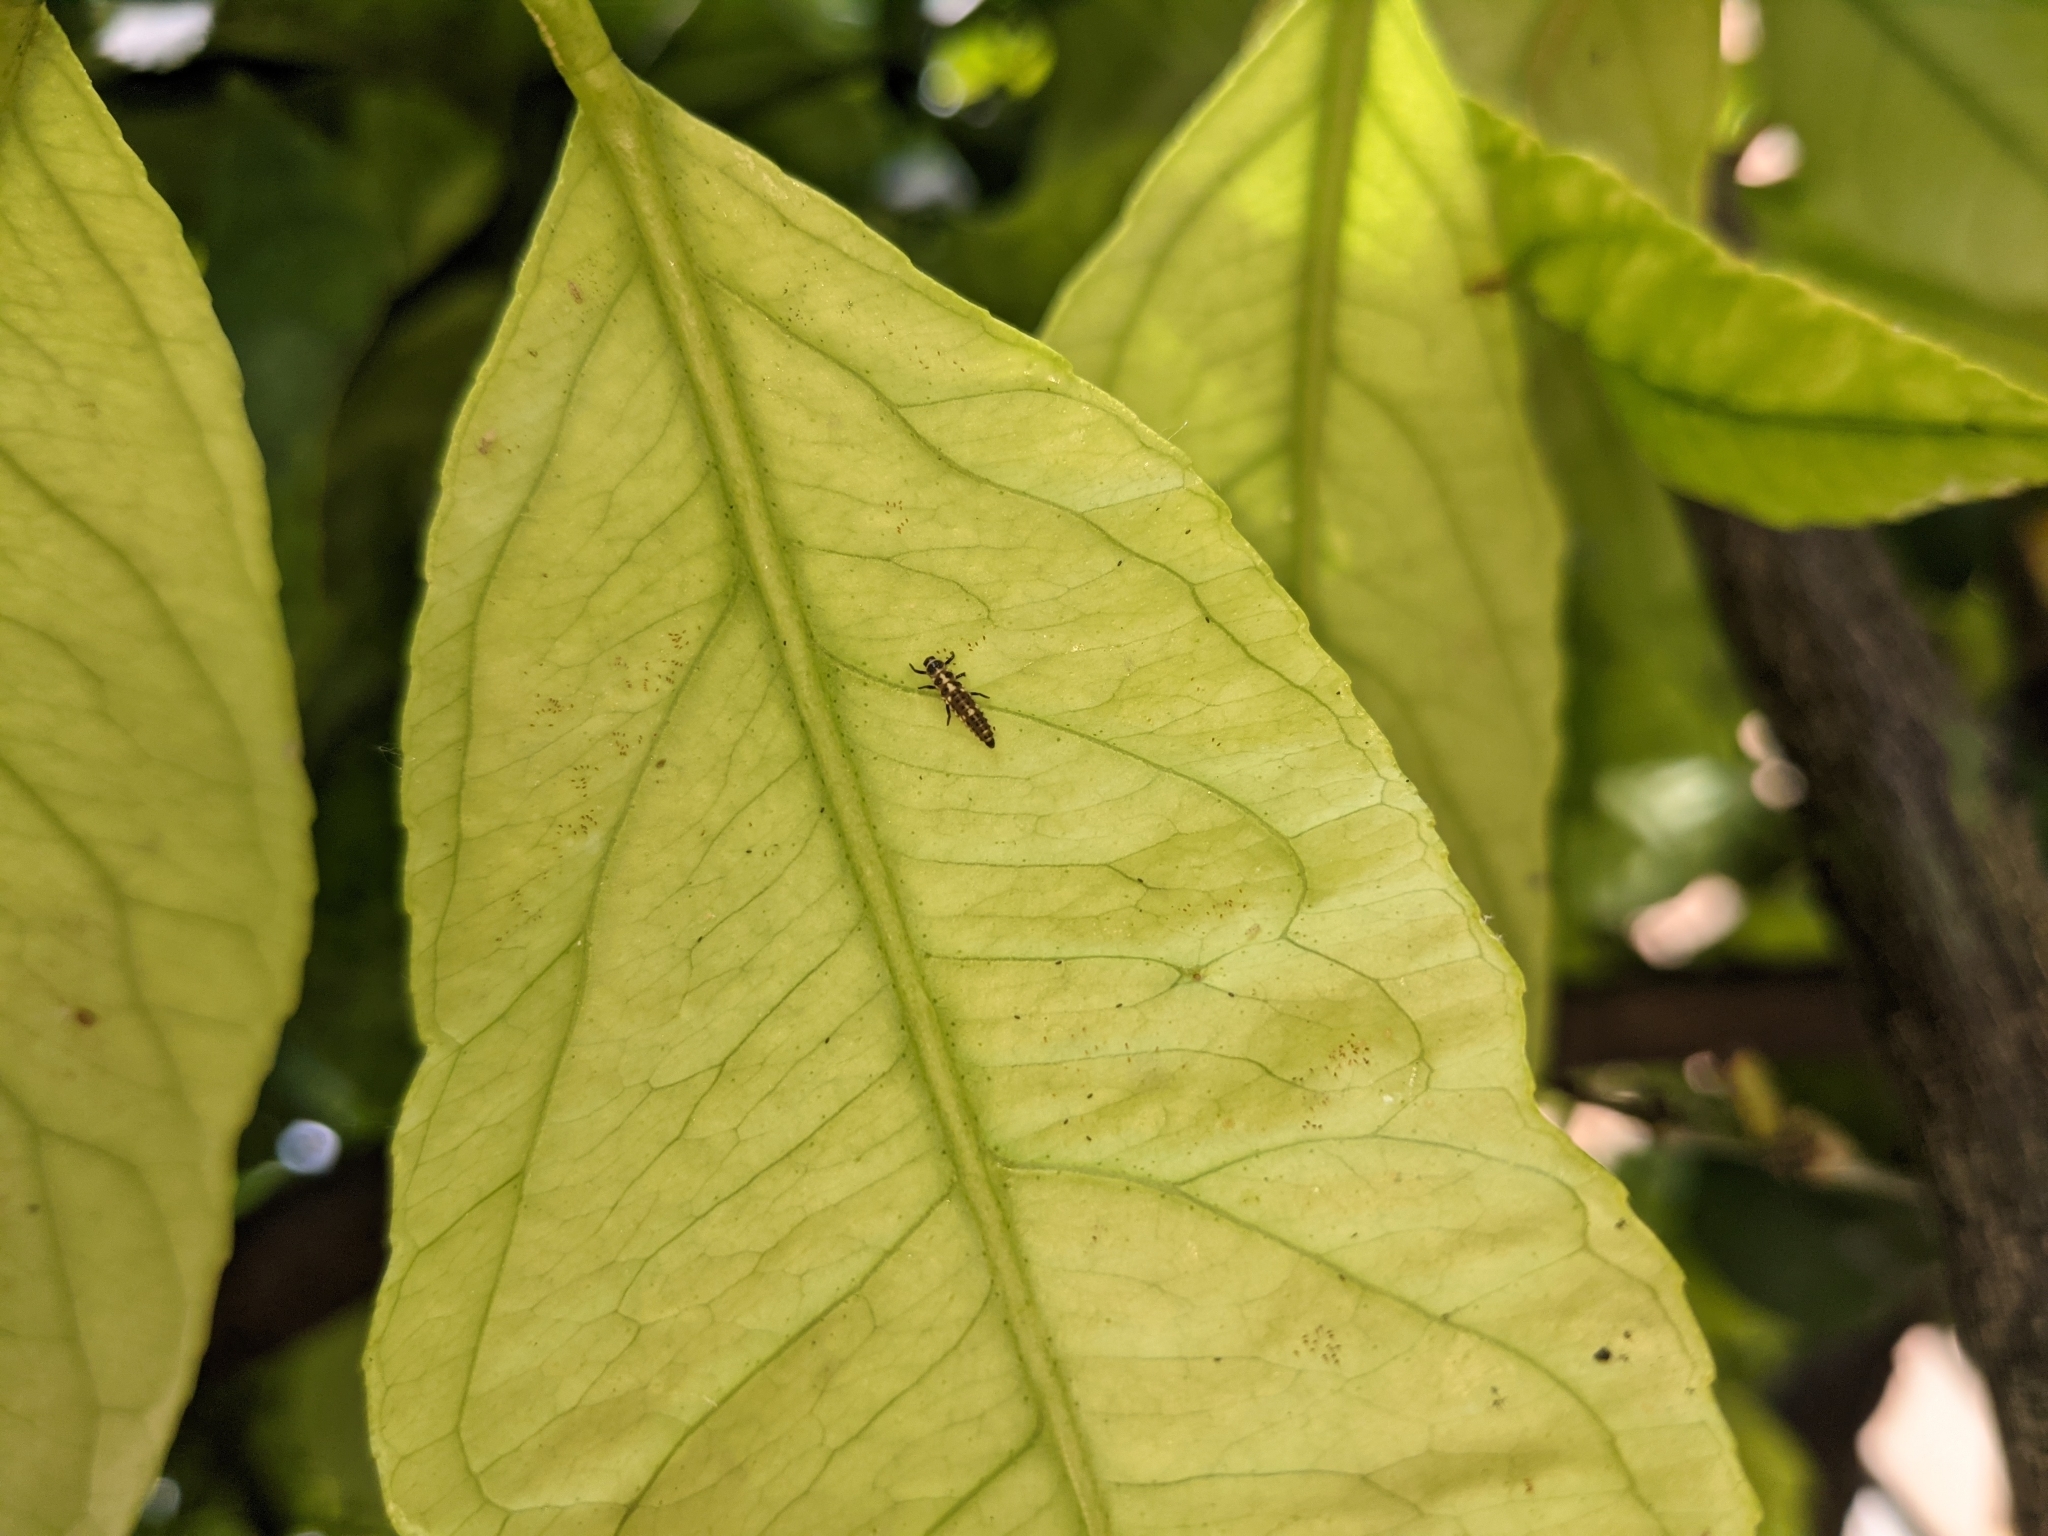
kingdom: Animalia
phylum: Arthropoda
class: Insecta
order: Coleoptera
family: Coccinellidae
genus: Propylaea
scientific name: Propylaea quatuordecimpunctata
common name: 14-spotted ladybird beetle
